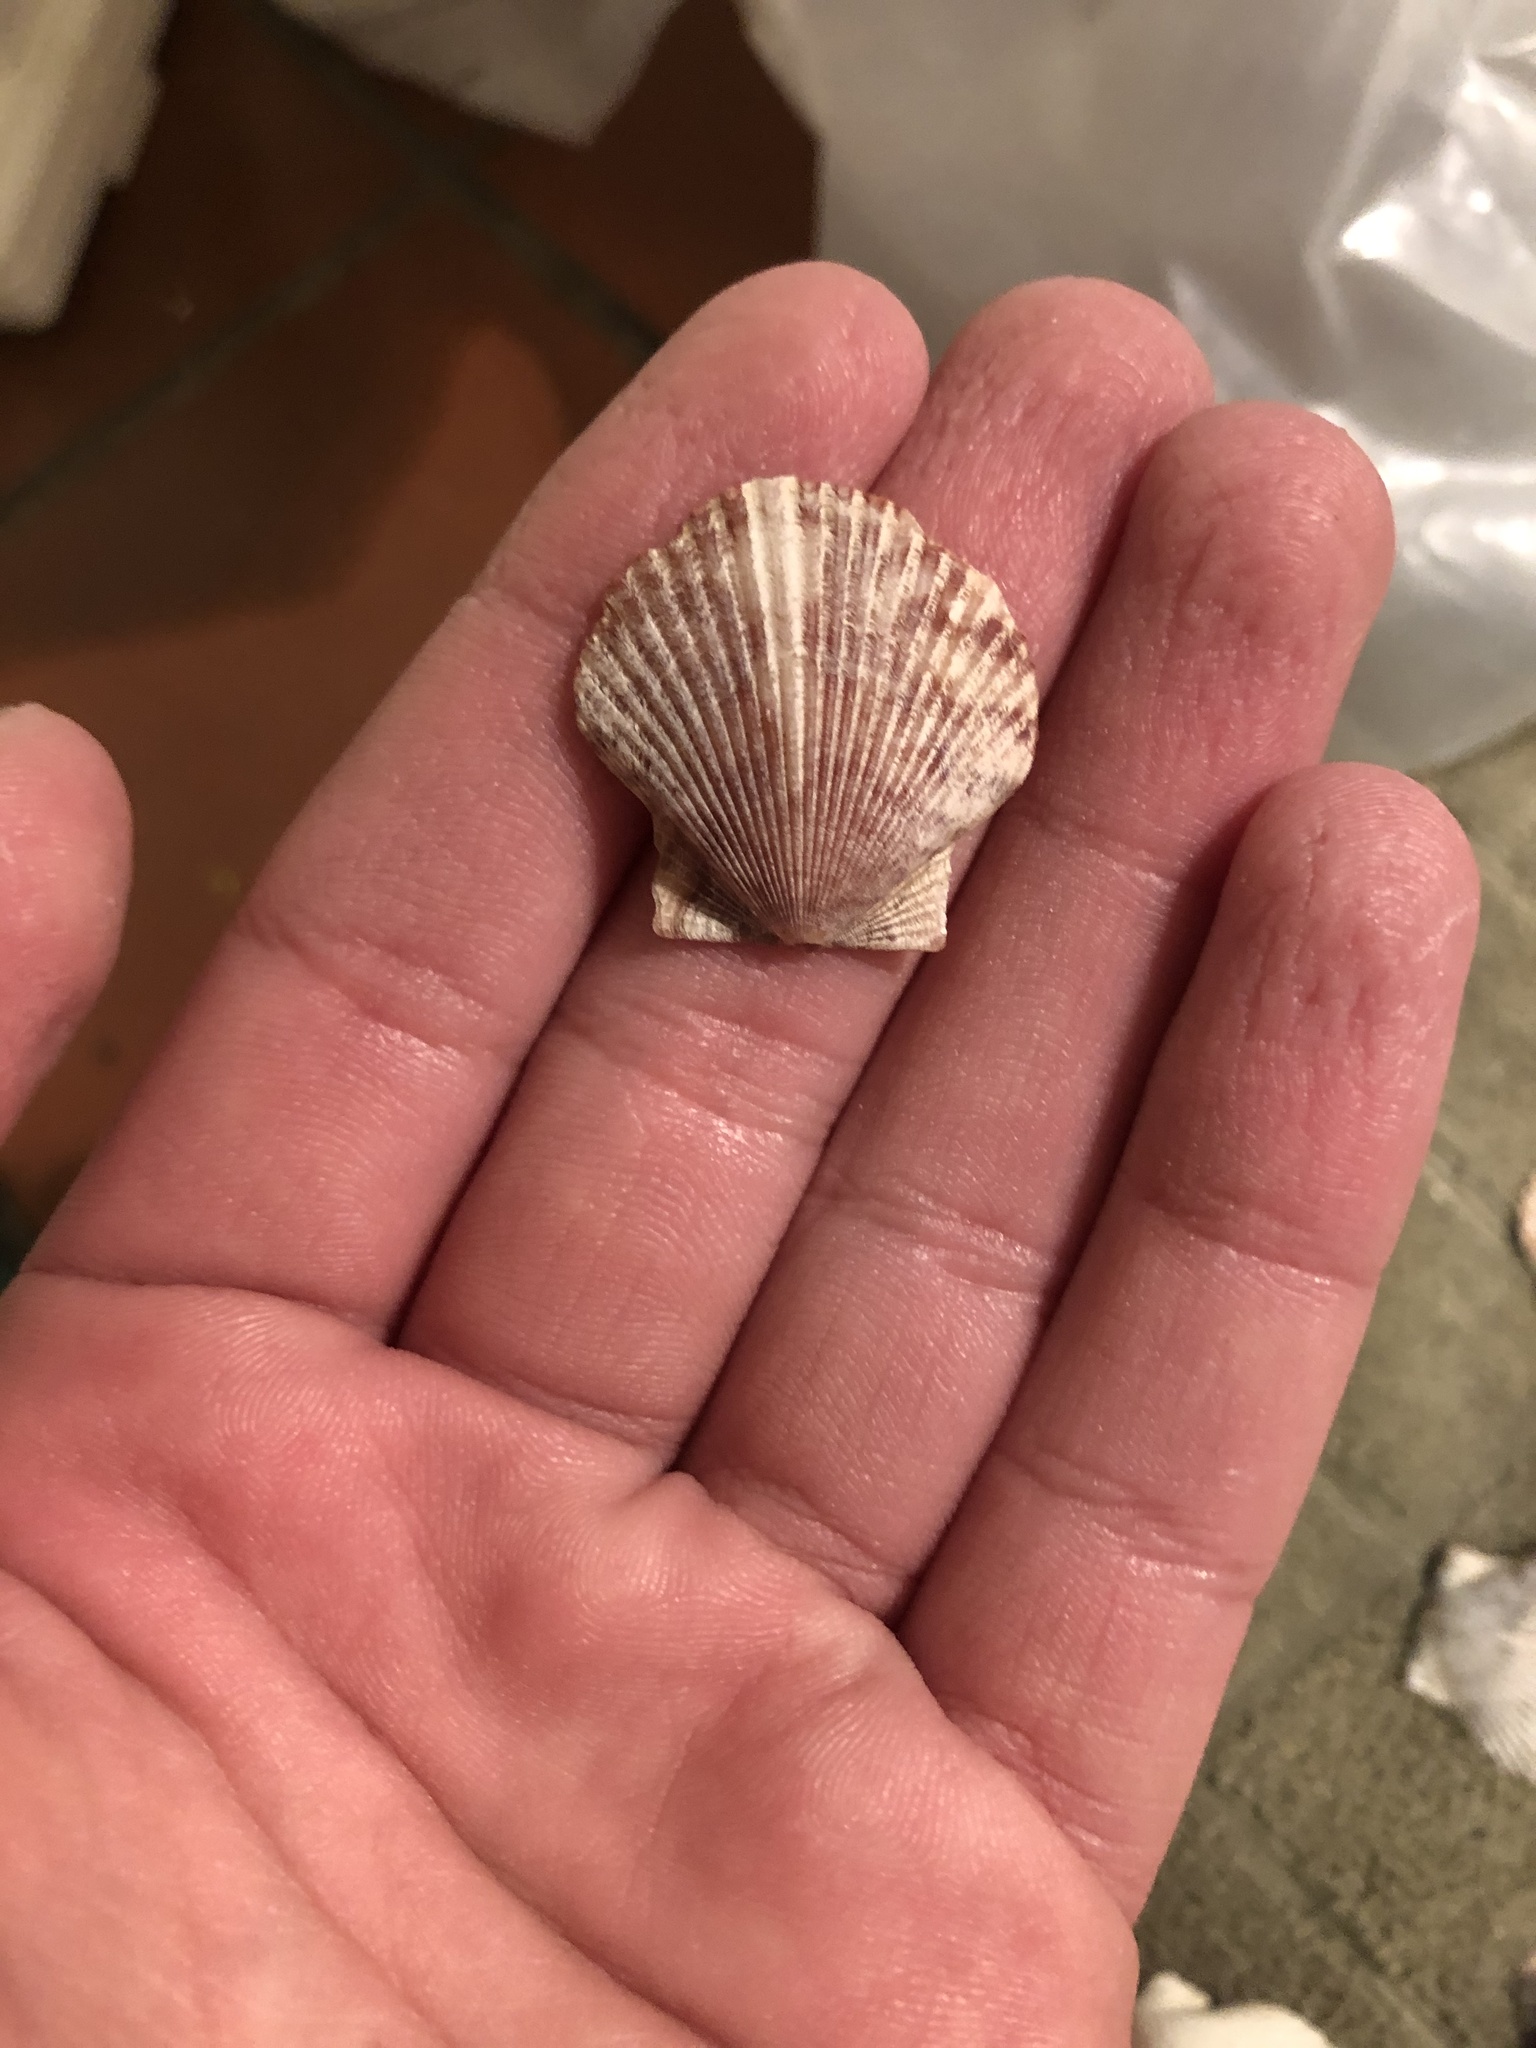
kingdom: Animalia
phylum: Mollusca
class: Bivalvia
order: Pectinida
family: Pectinidae
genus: Argopecten
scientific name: Argopecten ventricosus
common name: Catarina scallop
